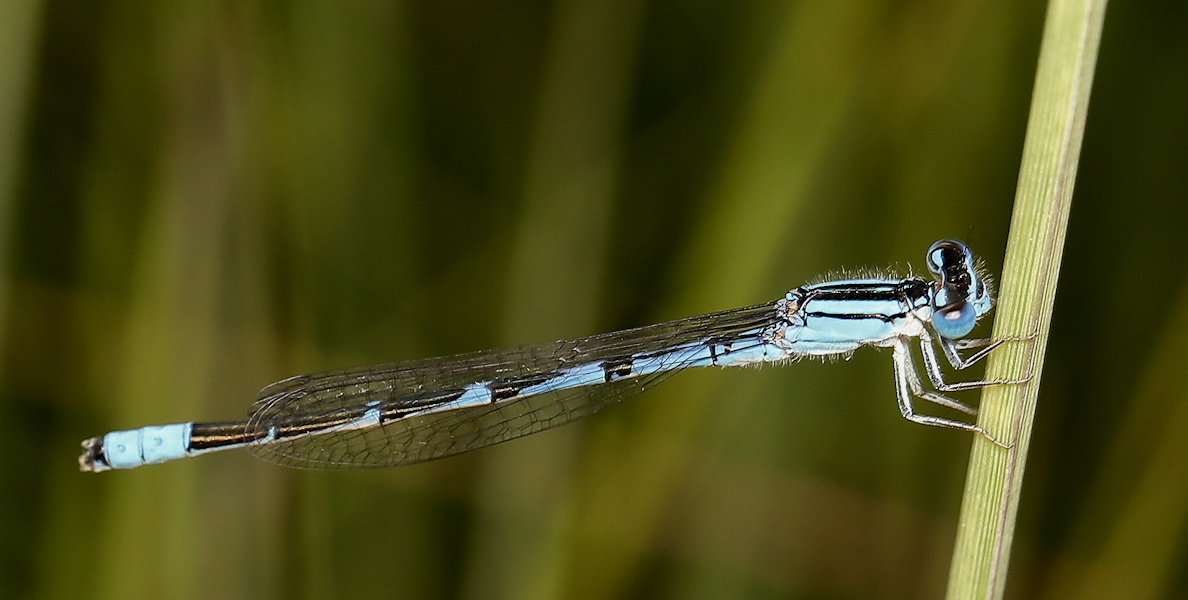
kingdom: Animalia
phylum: Arthropoda
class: Insecta
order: Odonata
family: Coenagrionidae
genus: Africallagma
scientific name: Africallagma sapphirinum
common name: Sapphire bluet
